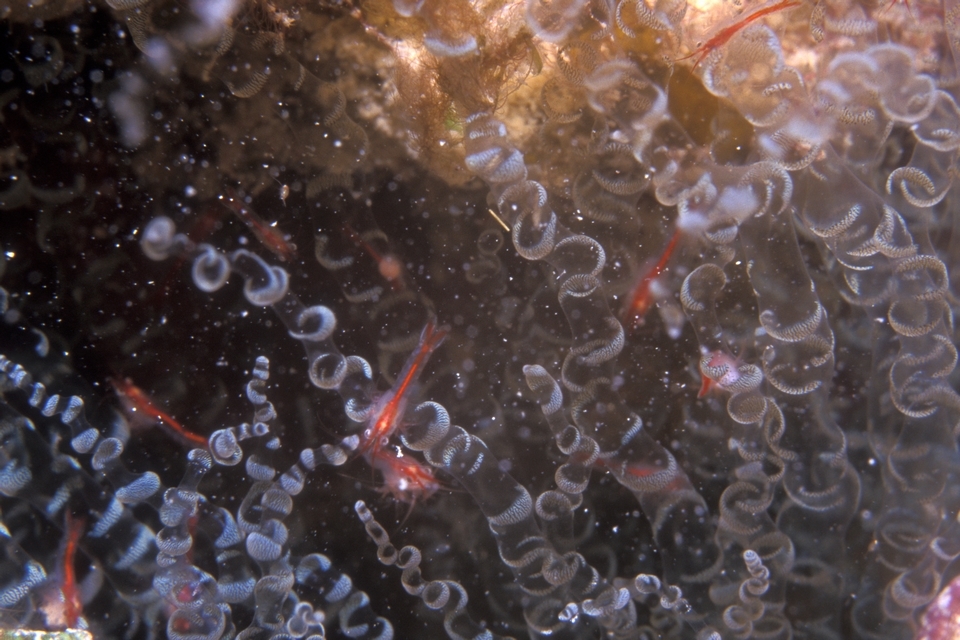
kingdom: Animalia
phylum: Cnidaria
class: Anthozoa
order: Actiniaria
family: Aiptasiidae
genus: Bartholomea
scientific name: Bartholomea annulata
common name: Corkscrew anemone
